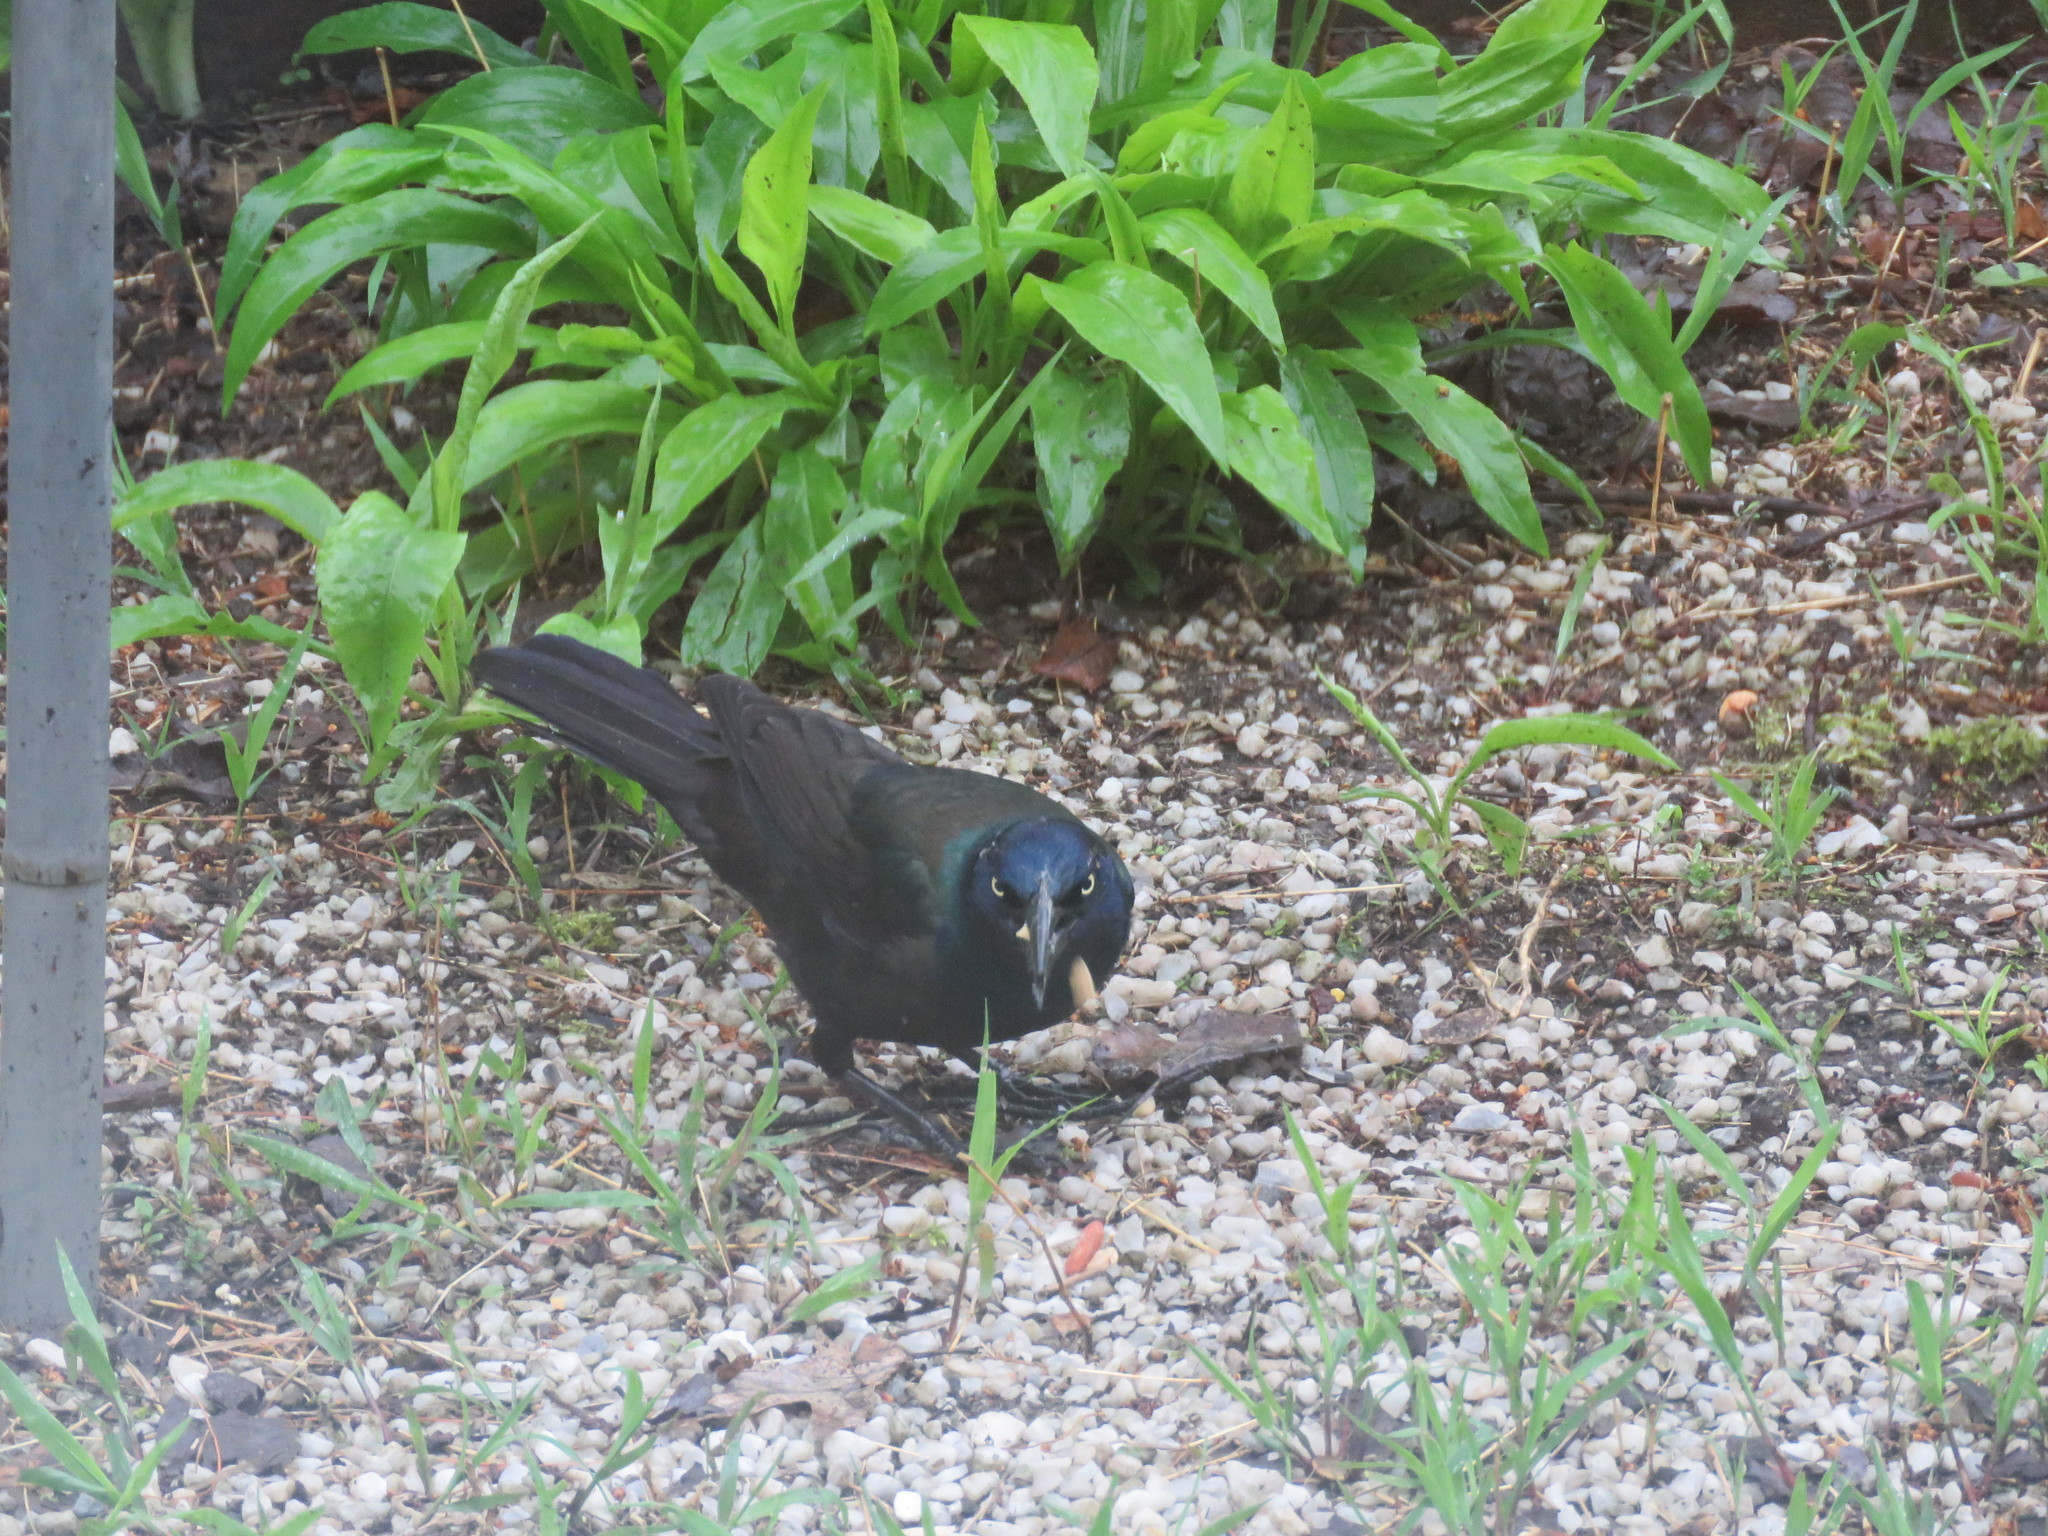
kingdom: Animalia
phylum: Chordata
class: Aves
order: Passeriformes
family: Icteridae
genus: Quiscalus
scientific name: Quiscalus quiscula
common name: Common grackle
